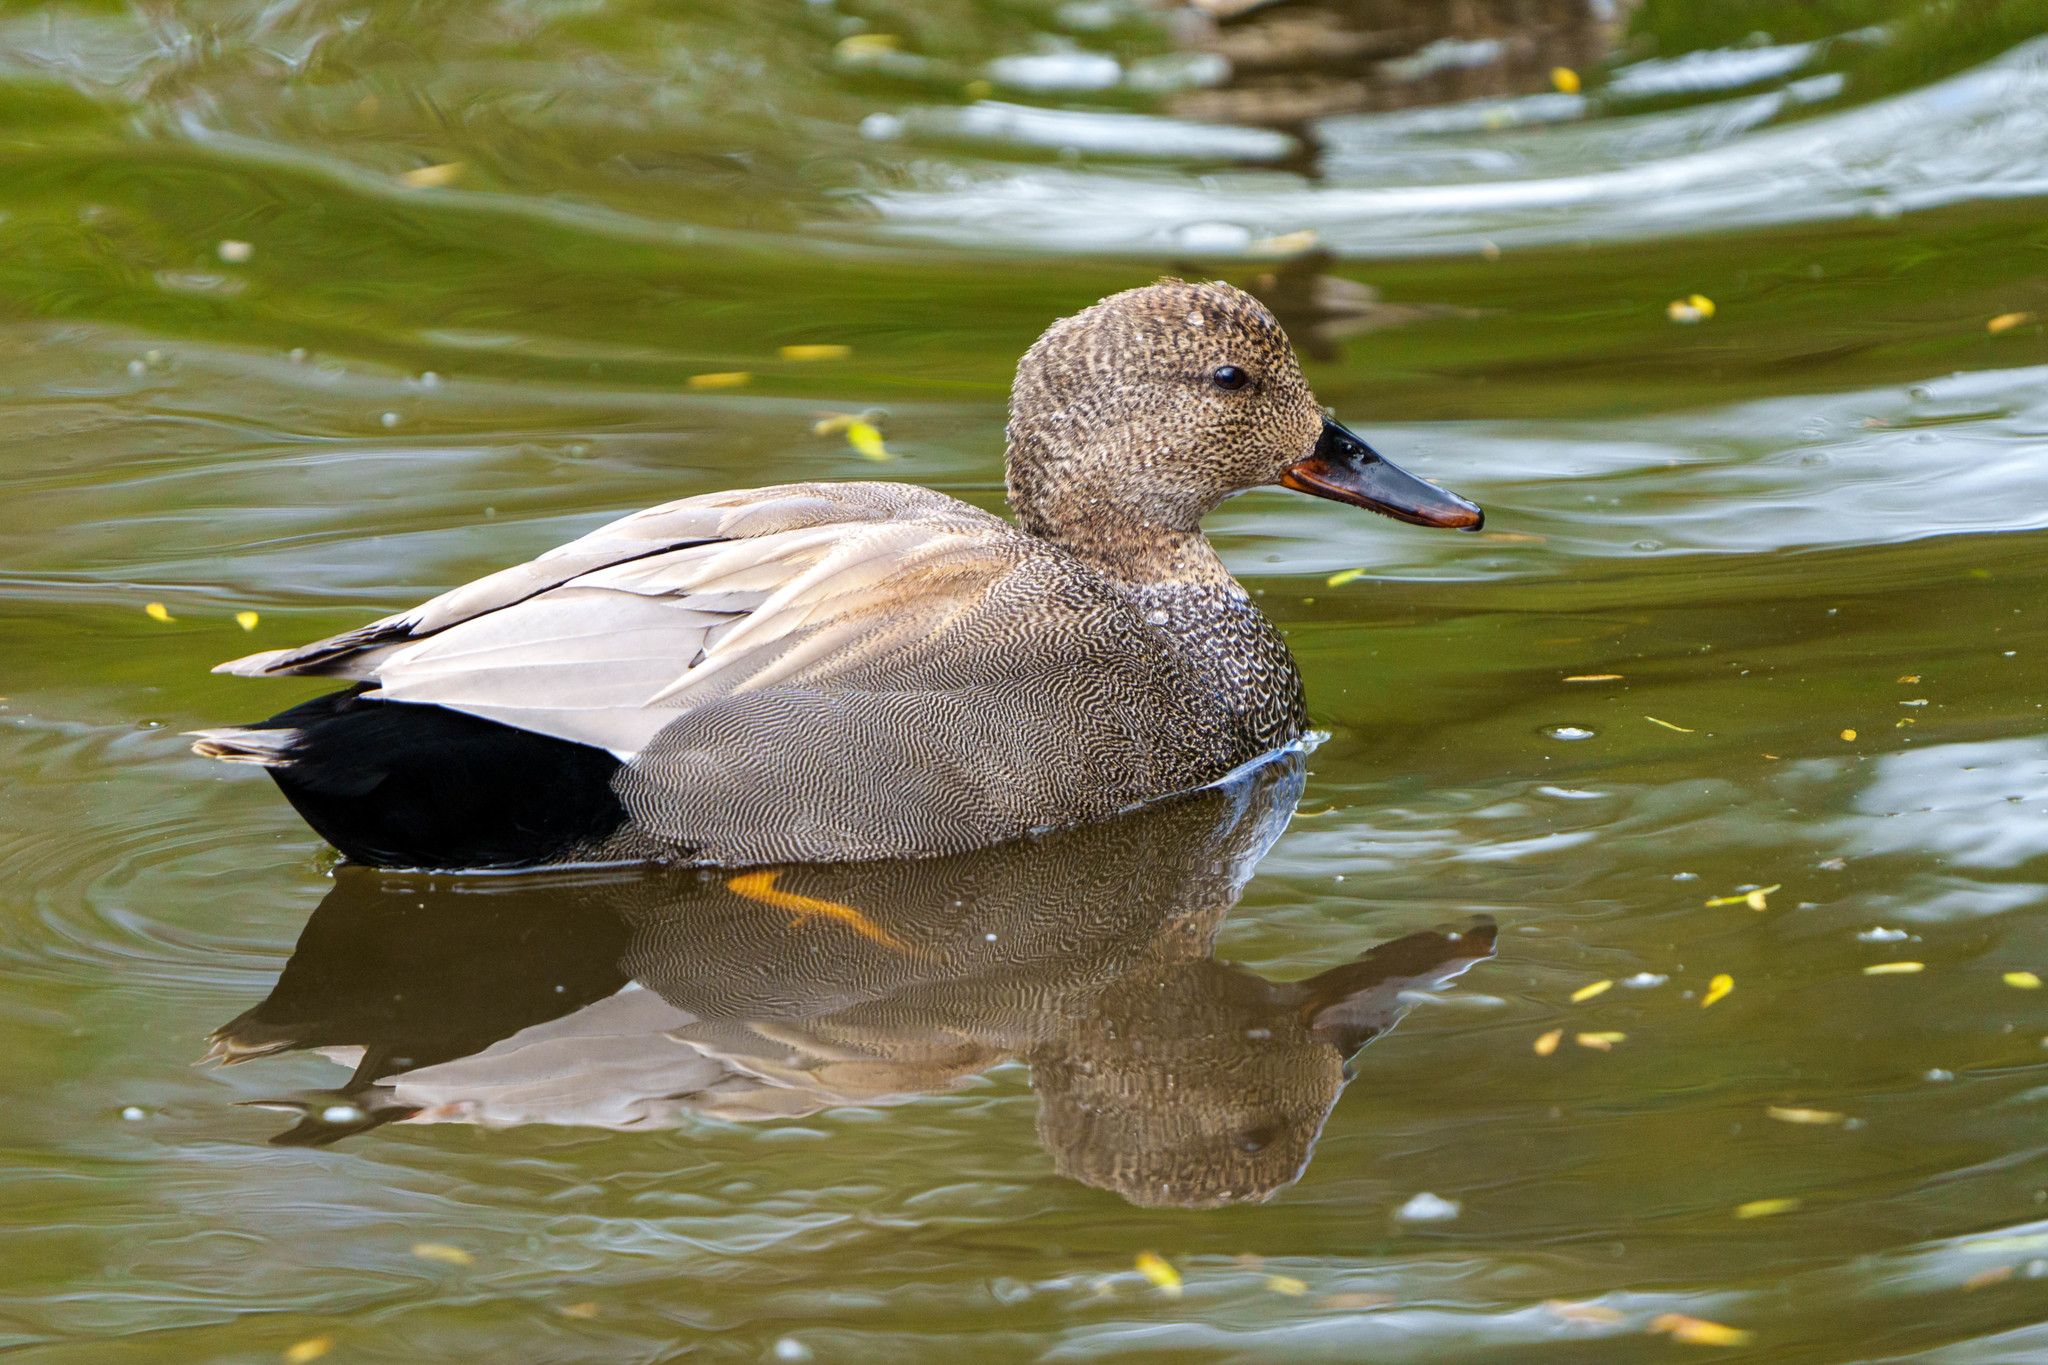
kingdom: Animalia
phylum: Chordata
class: Aves
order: Anseriformes
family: Anatidae
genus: Mareca
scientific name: Mareca strepera
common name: Gadwall
